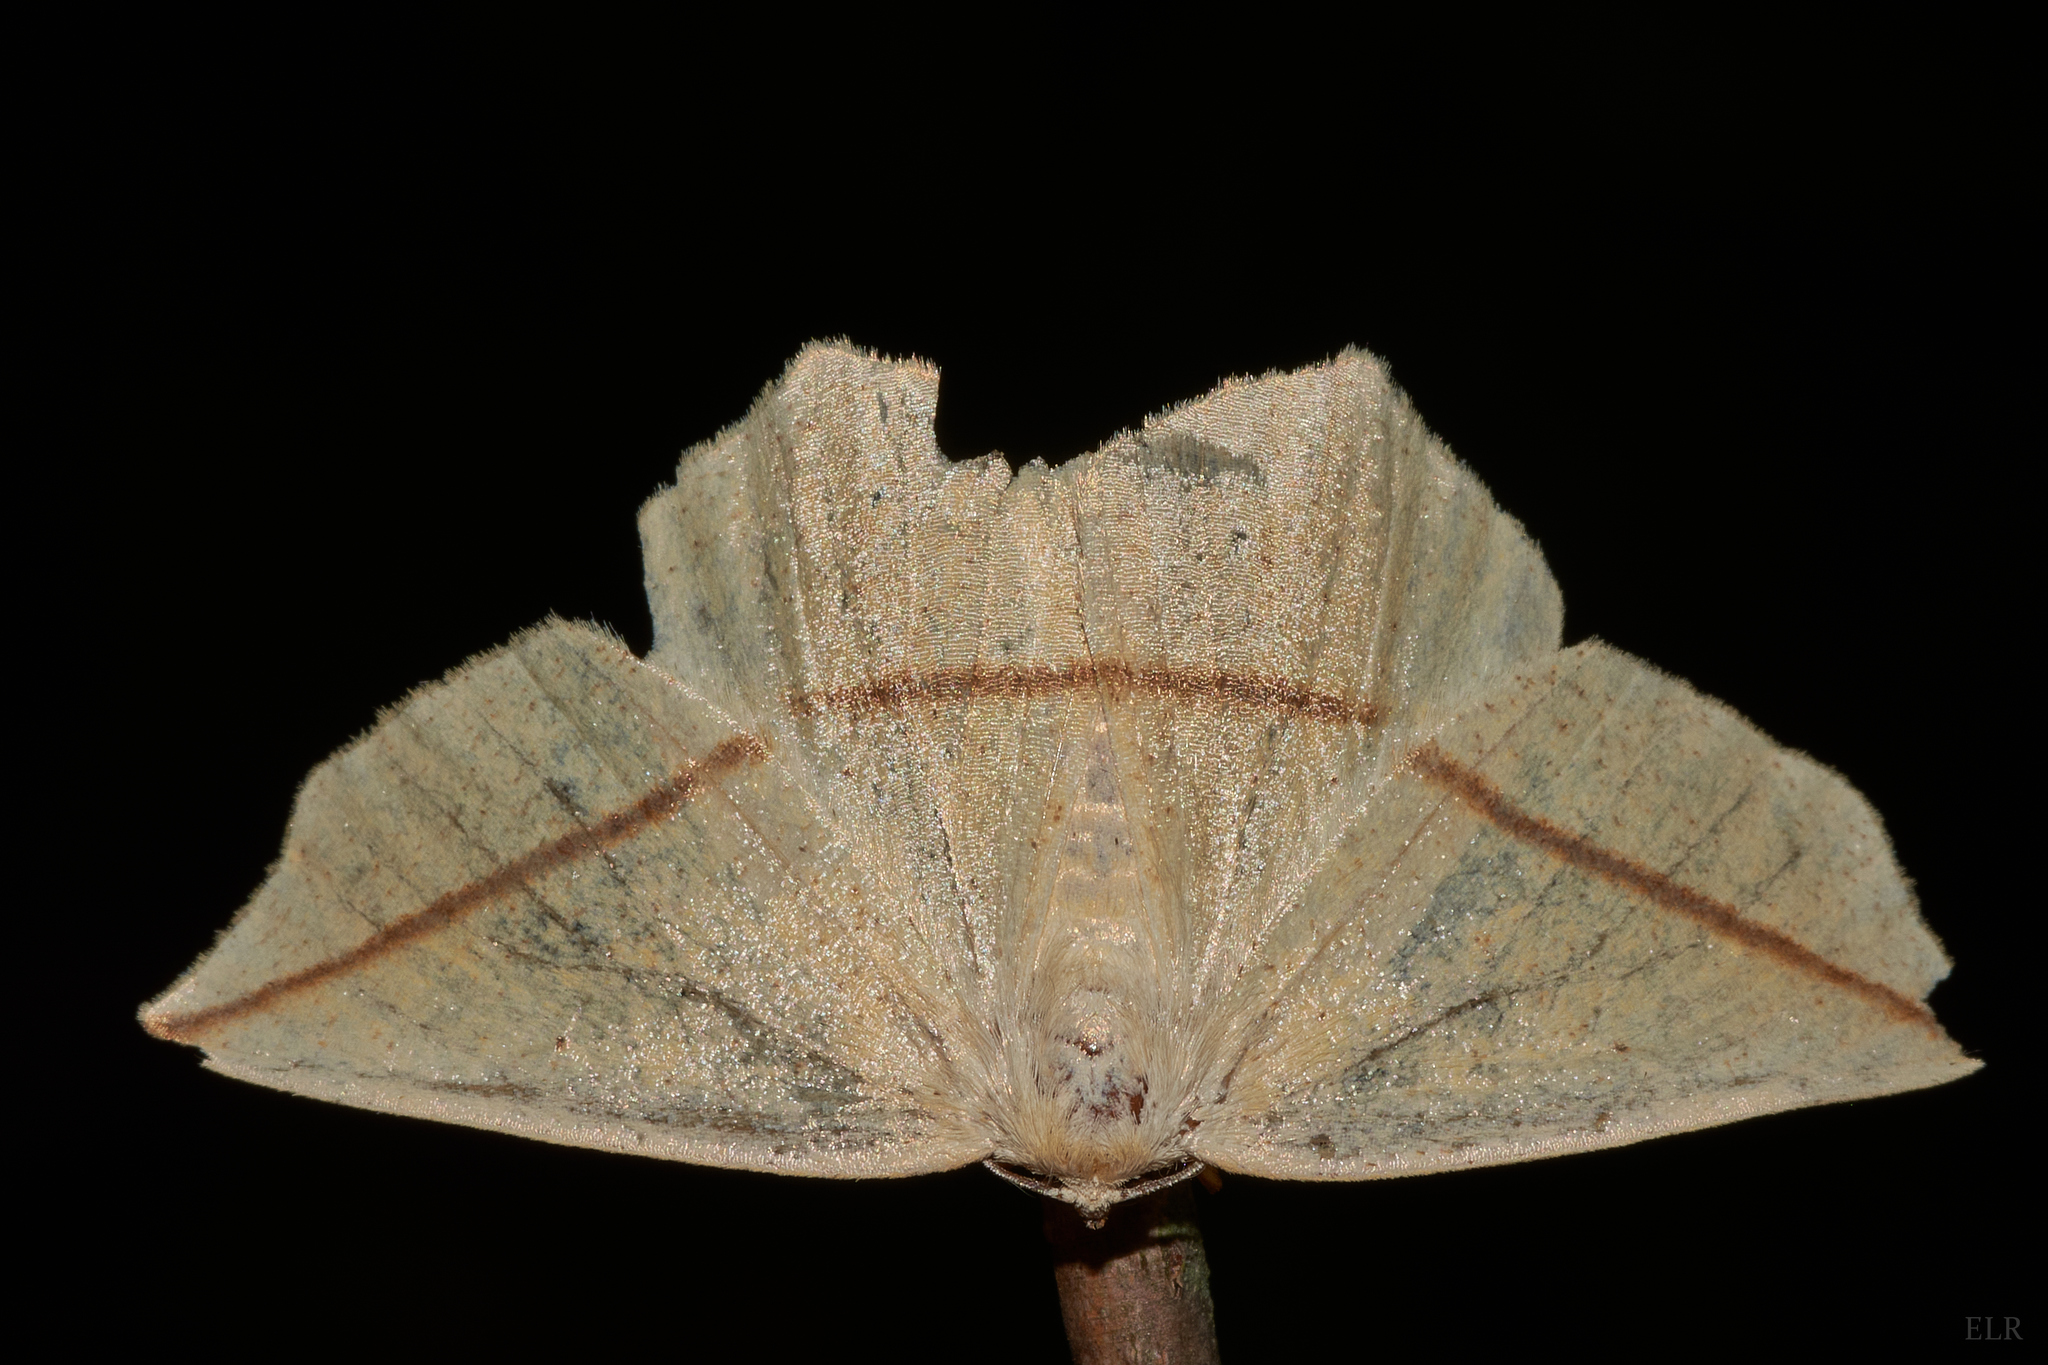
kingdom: Animalia
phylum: Arthropoda
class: Insecta
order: Lepidoptera
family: Geometridae
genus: Tetracis
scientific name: Tetracis crocallata
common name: Yellow slant-line
